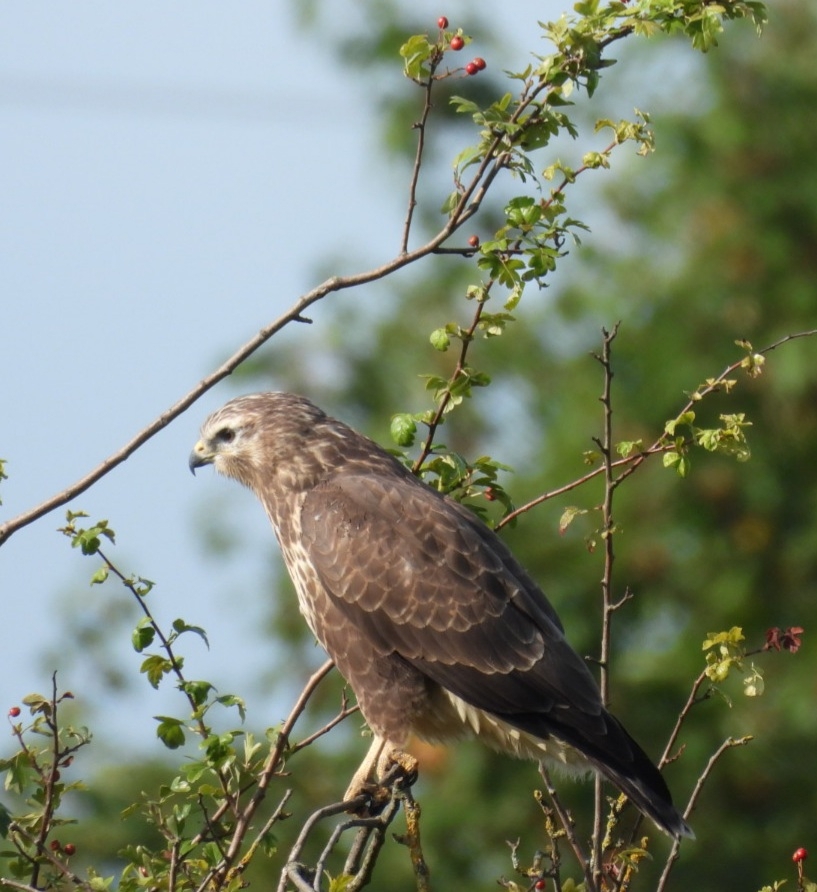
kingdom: Animalia
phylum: Chordata
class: Aves
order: Accipitriformes
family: Accipitridae
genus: Buteo
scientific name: Buteo buteo
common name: Common buzzard
